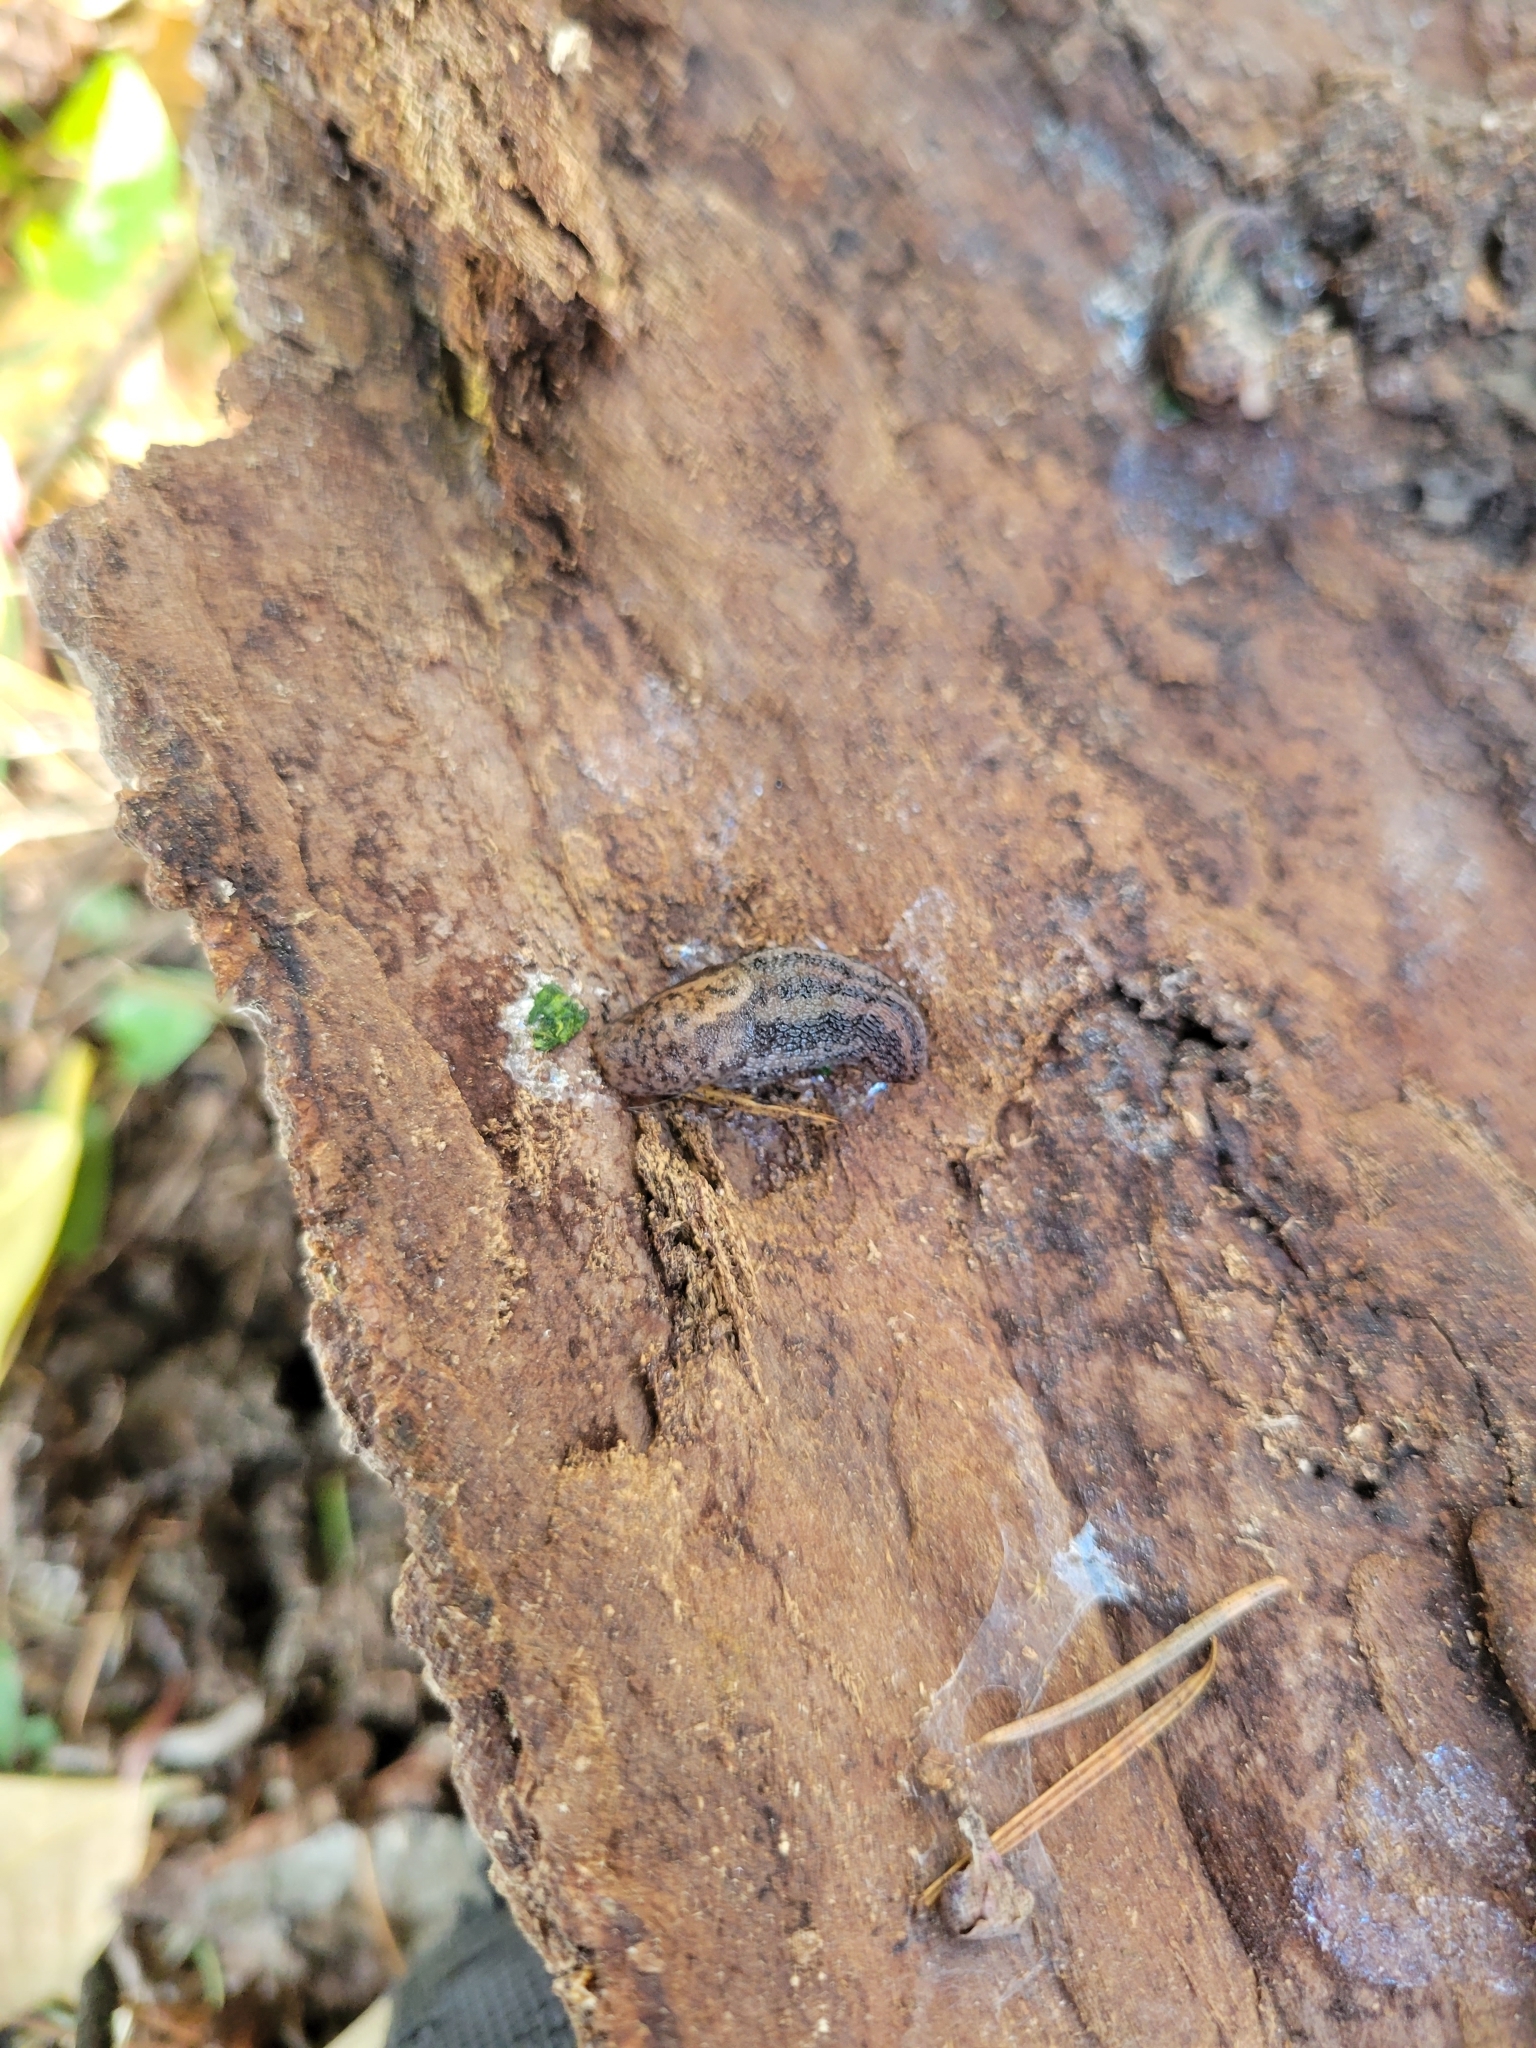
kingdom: Animalia
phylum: Mollusca
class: Gastropoda
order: Stylommatophora
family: Limacidae
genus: Limax
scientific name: Limax maximus
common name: Great grey slug
